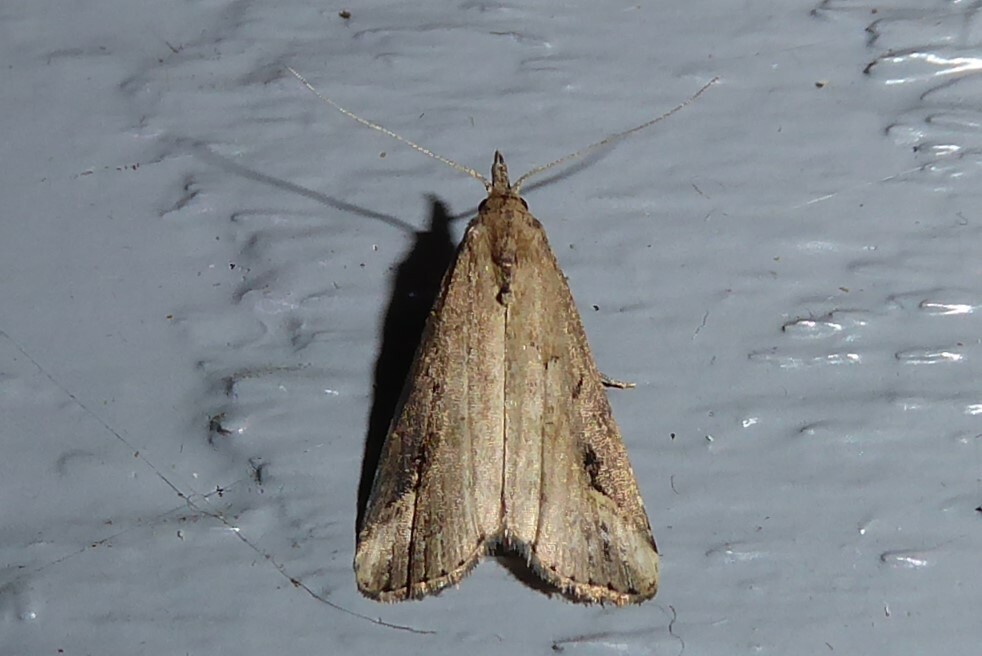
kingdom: Animalia
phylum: Arthropoda
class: Insecta
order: Lepidoptera
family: Erebidae
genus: Schrankia
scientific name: Schrankia costaestrigalis
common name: Pinion-streaked snout
